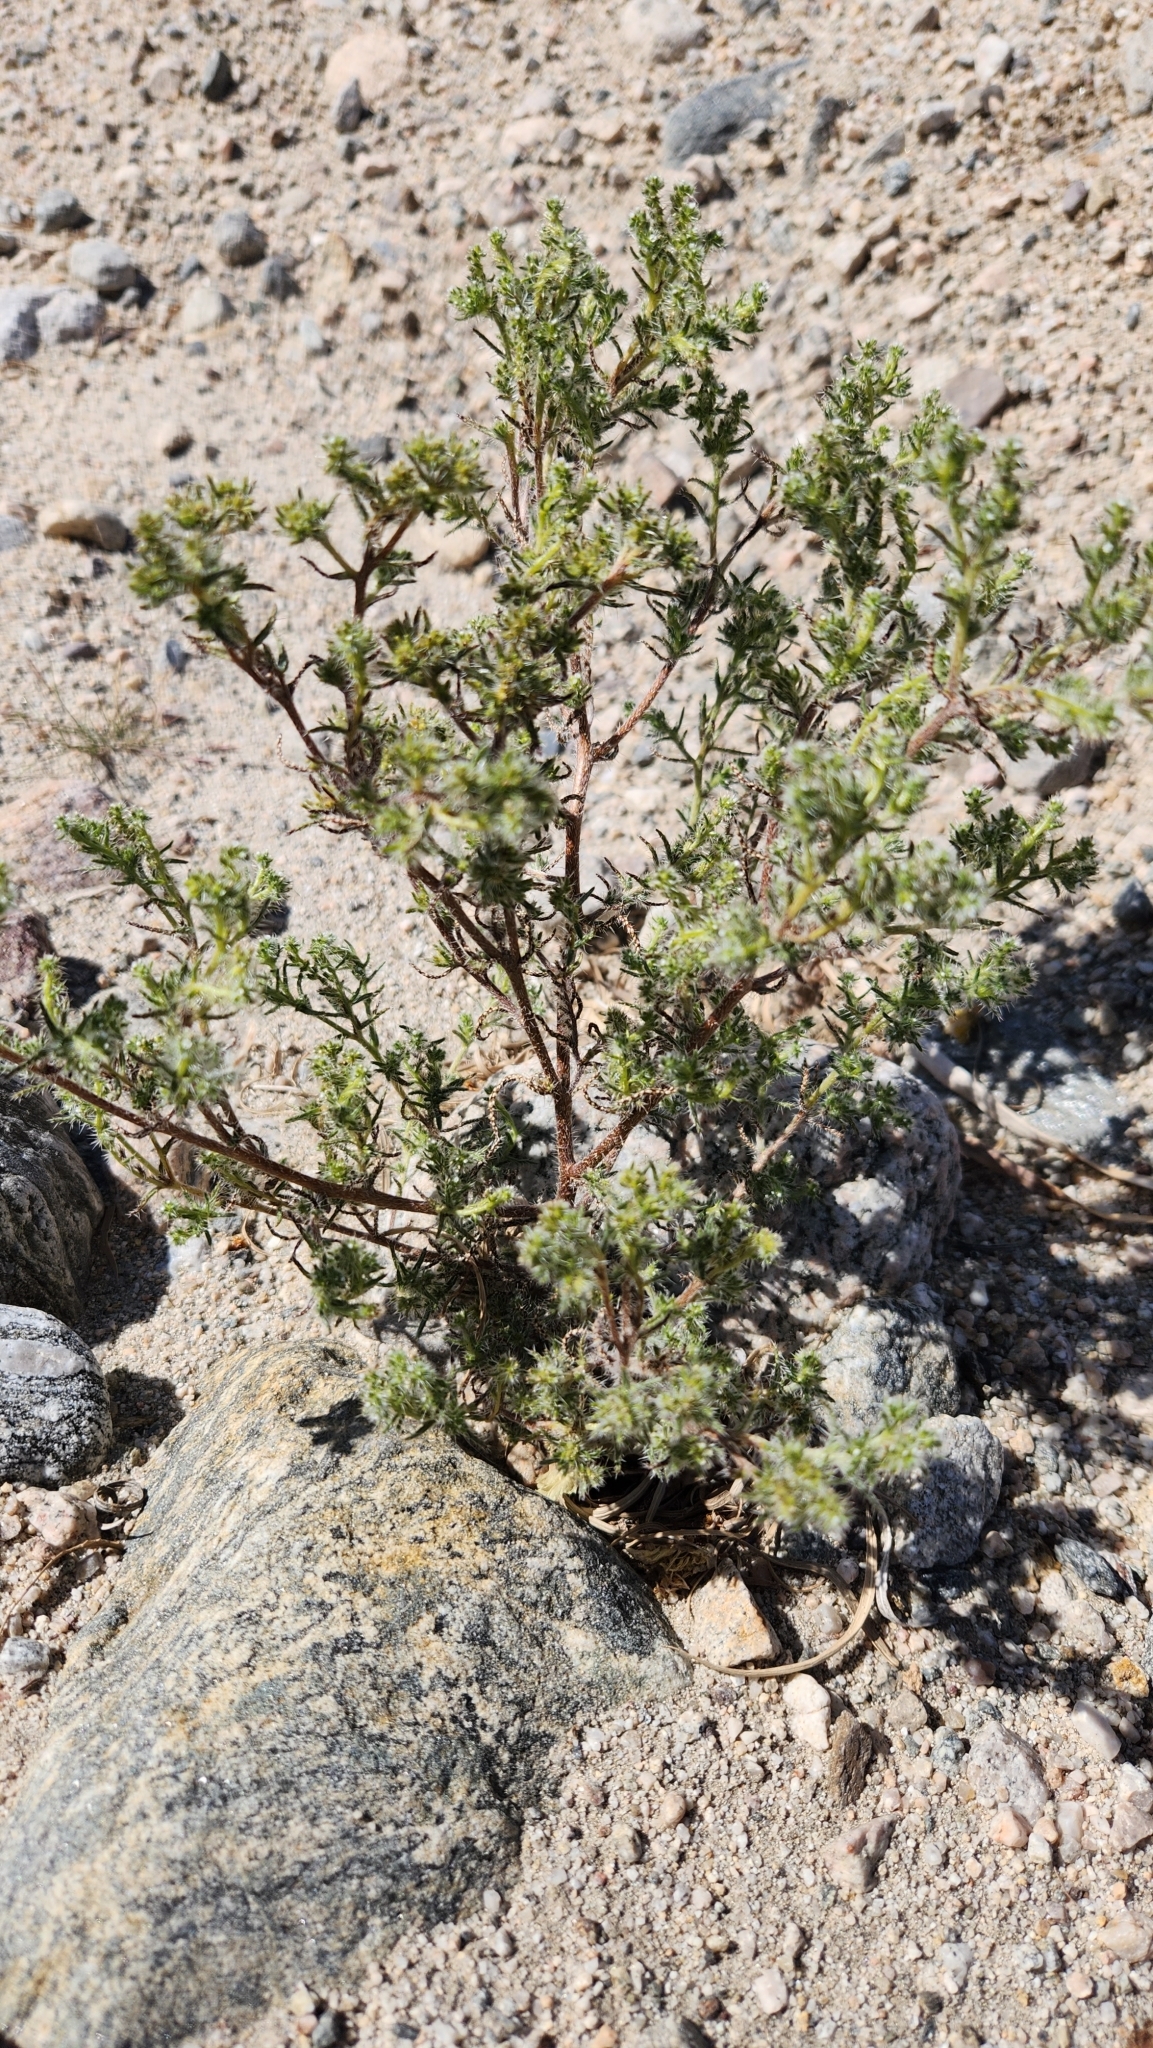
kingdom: Plantae
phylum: Tracheophyta
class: Magnoliopsida
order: Boraginales
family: Boraginaceae
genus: Cryptantha
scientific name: Cryptantha maritima
